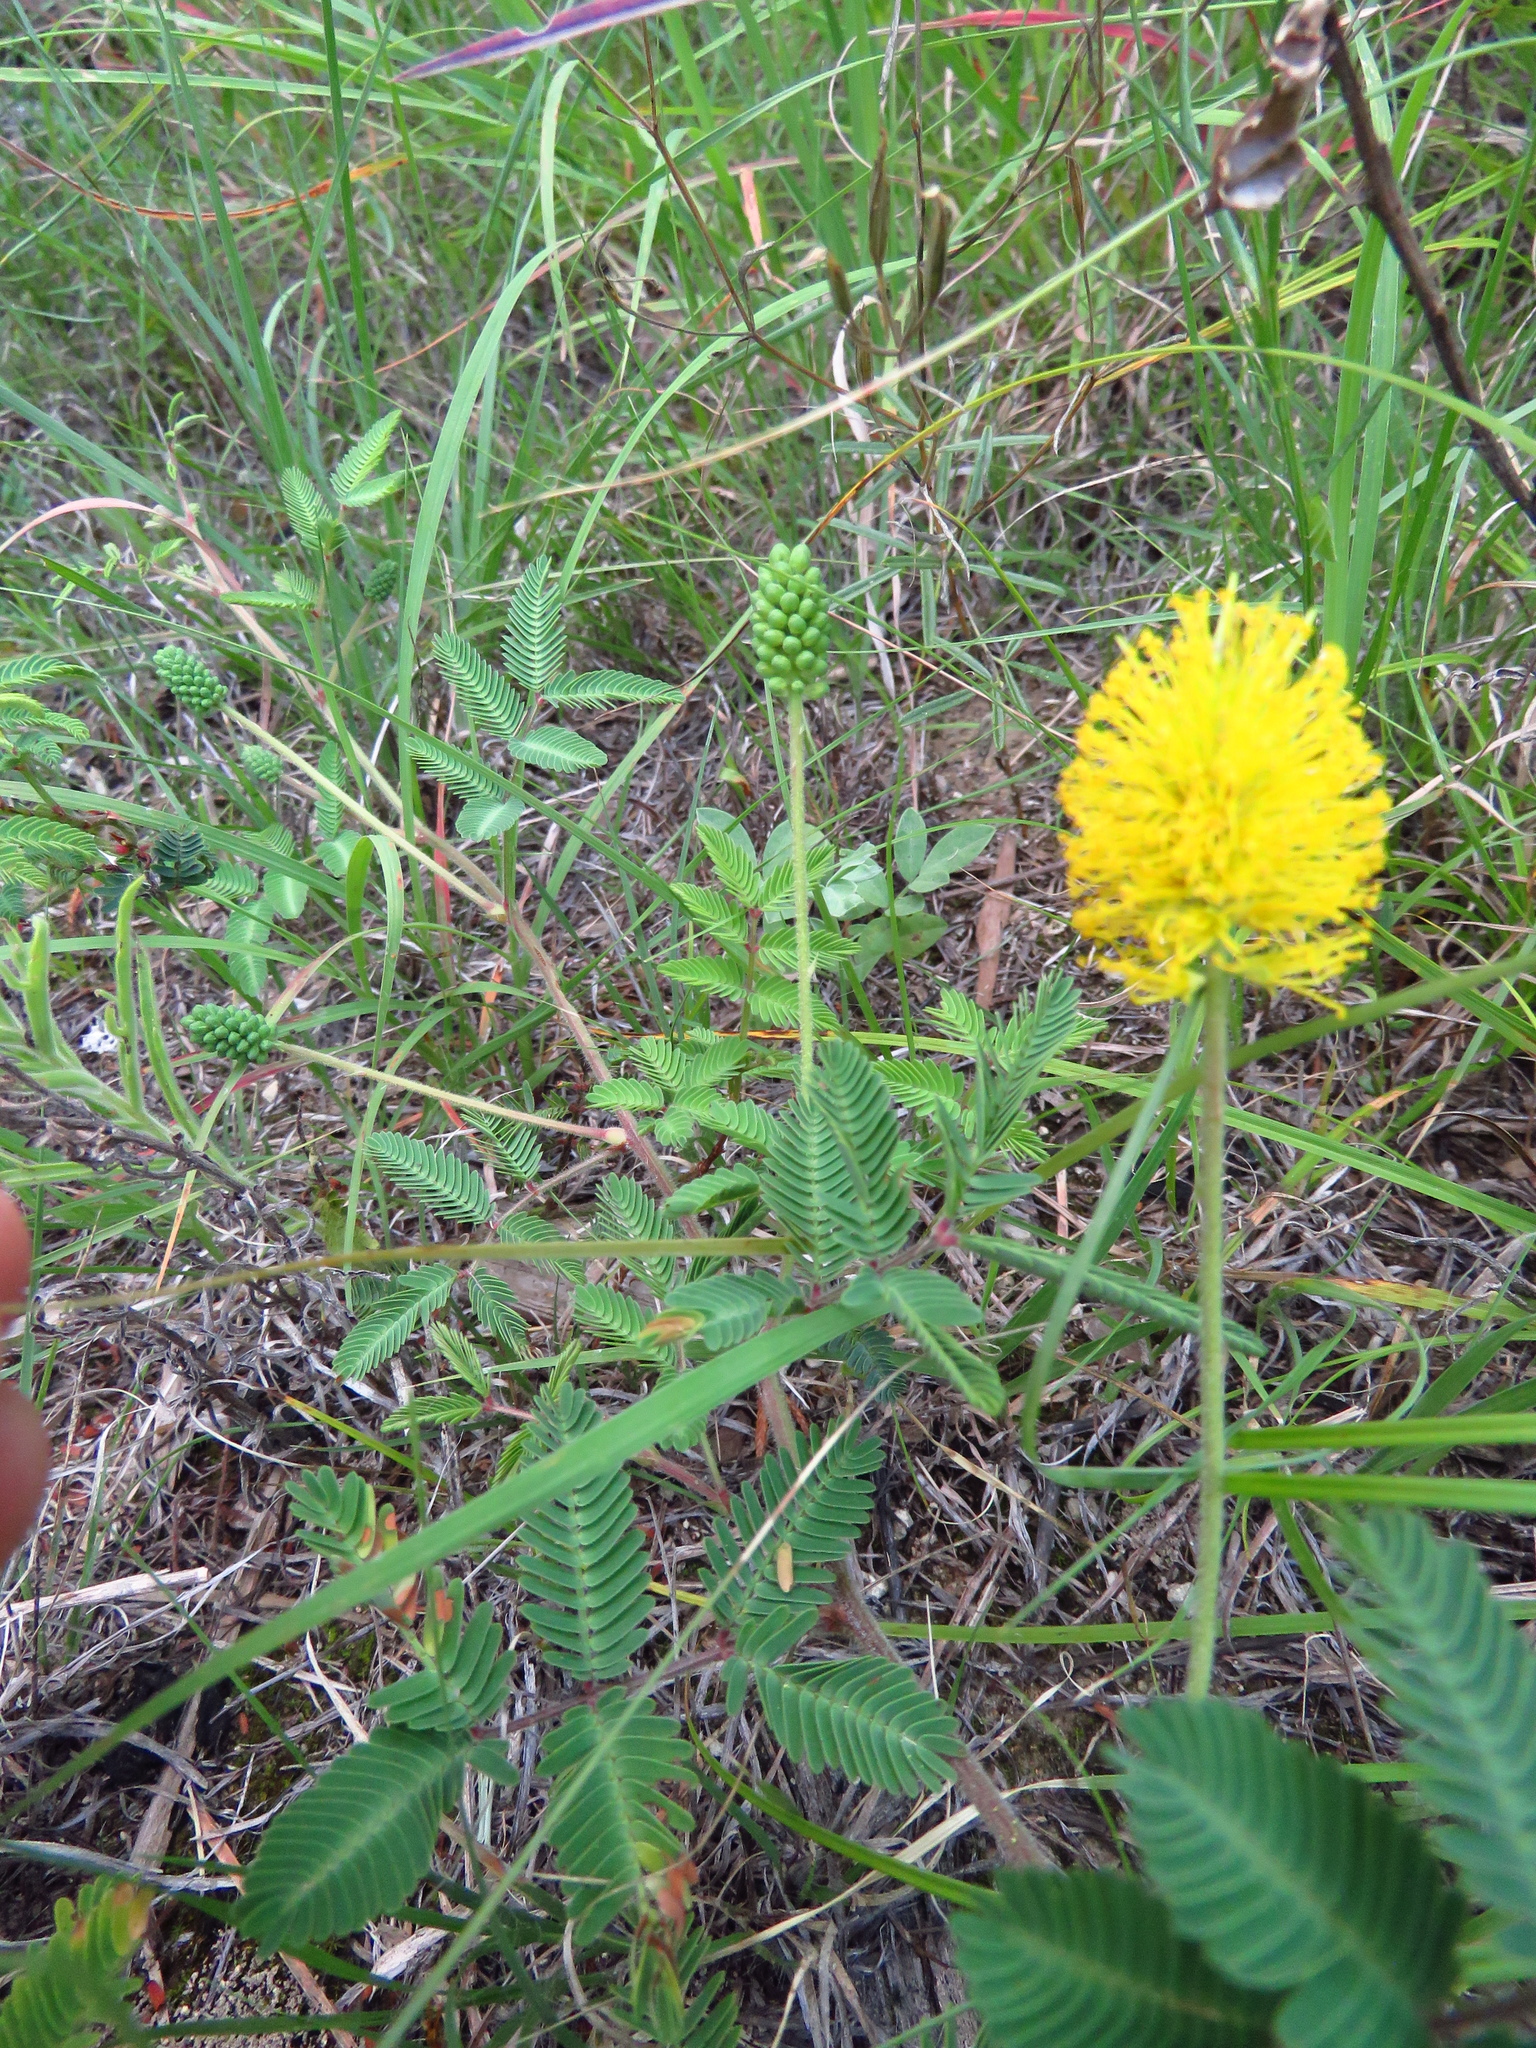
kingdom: Plantae
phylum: Tracheophyta
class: Magnoliopsida
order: Fabales
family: Fabaceae
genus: Neptunia
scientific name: Neptunia lutea
